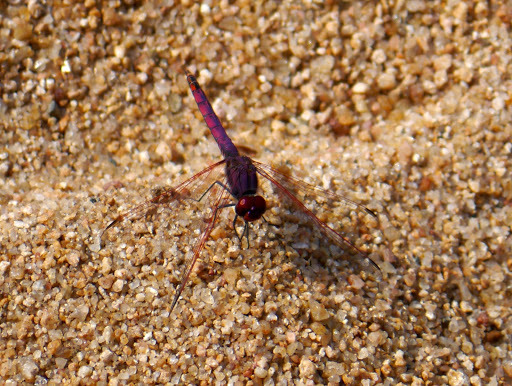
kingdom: Animalia
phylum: Arthropoda
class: Insecta
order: Odonata
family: Libellulidae
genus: Trithemis
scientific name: Trithemis annulata
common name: Violet dropwing
